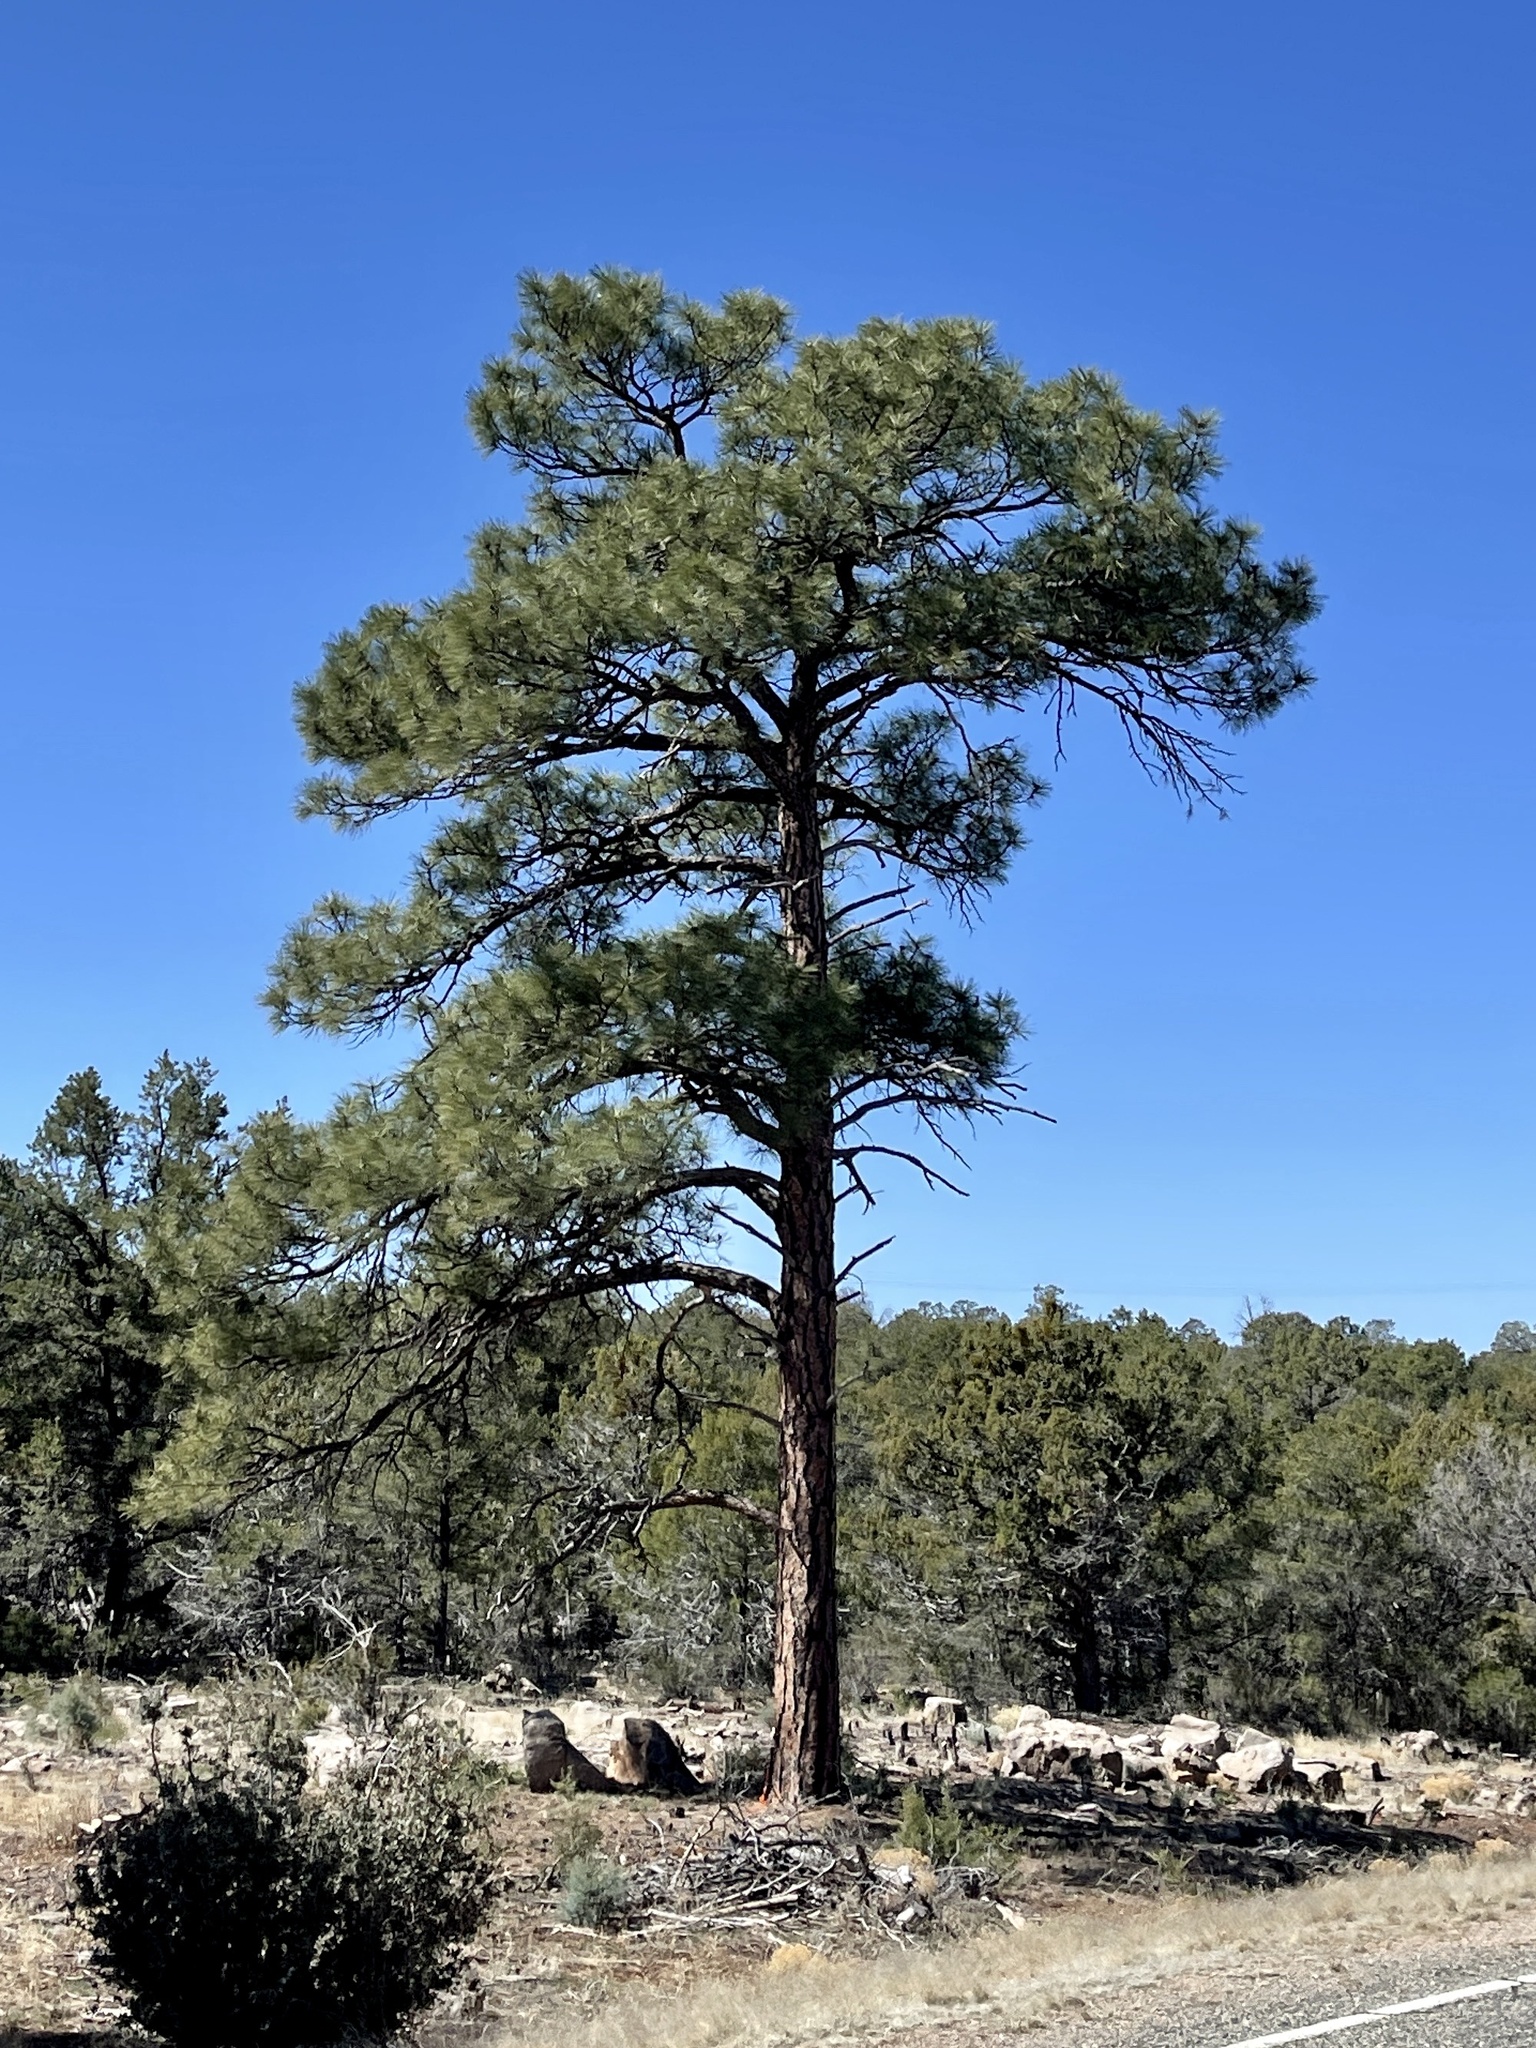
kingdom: Plantae
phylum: Tracheophyta
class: Pinopsida
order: Pinales
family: Pinaceae
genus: Pinus
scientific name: Pinus ponderosa
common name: Western yellow-pine
